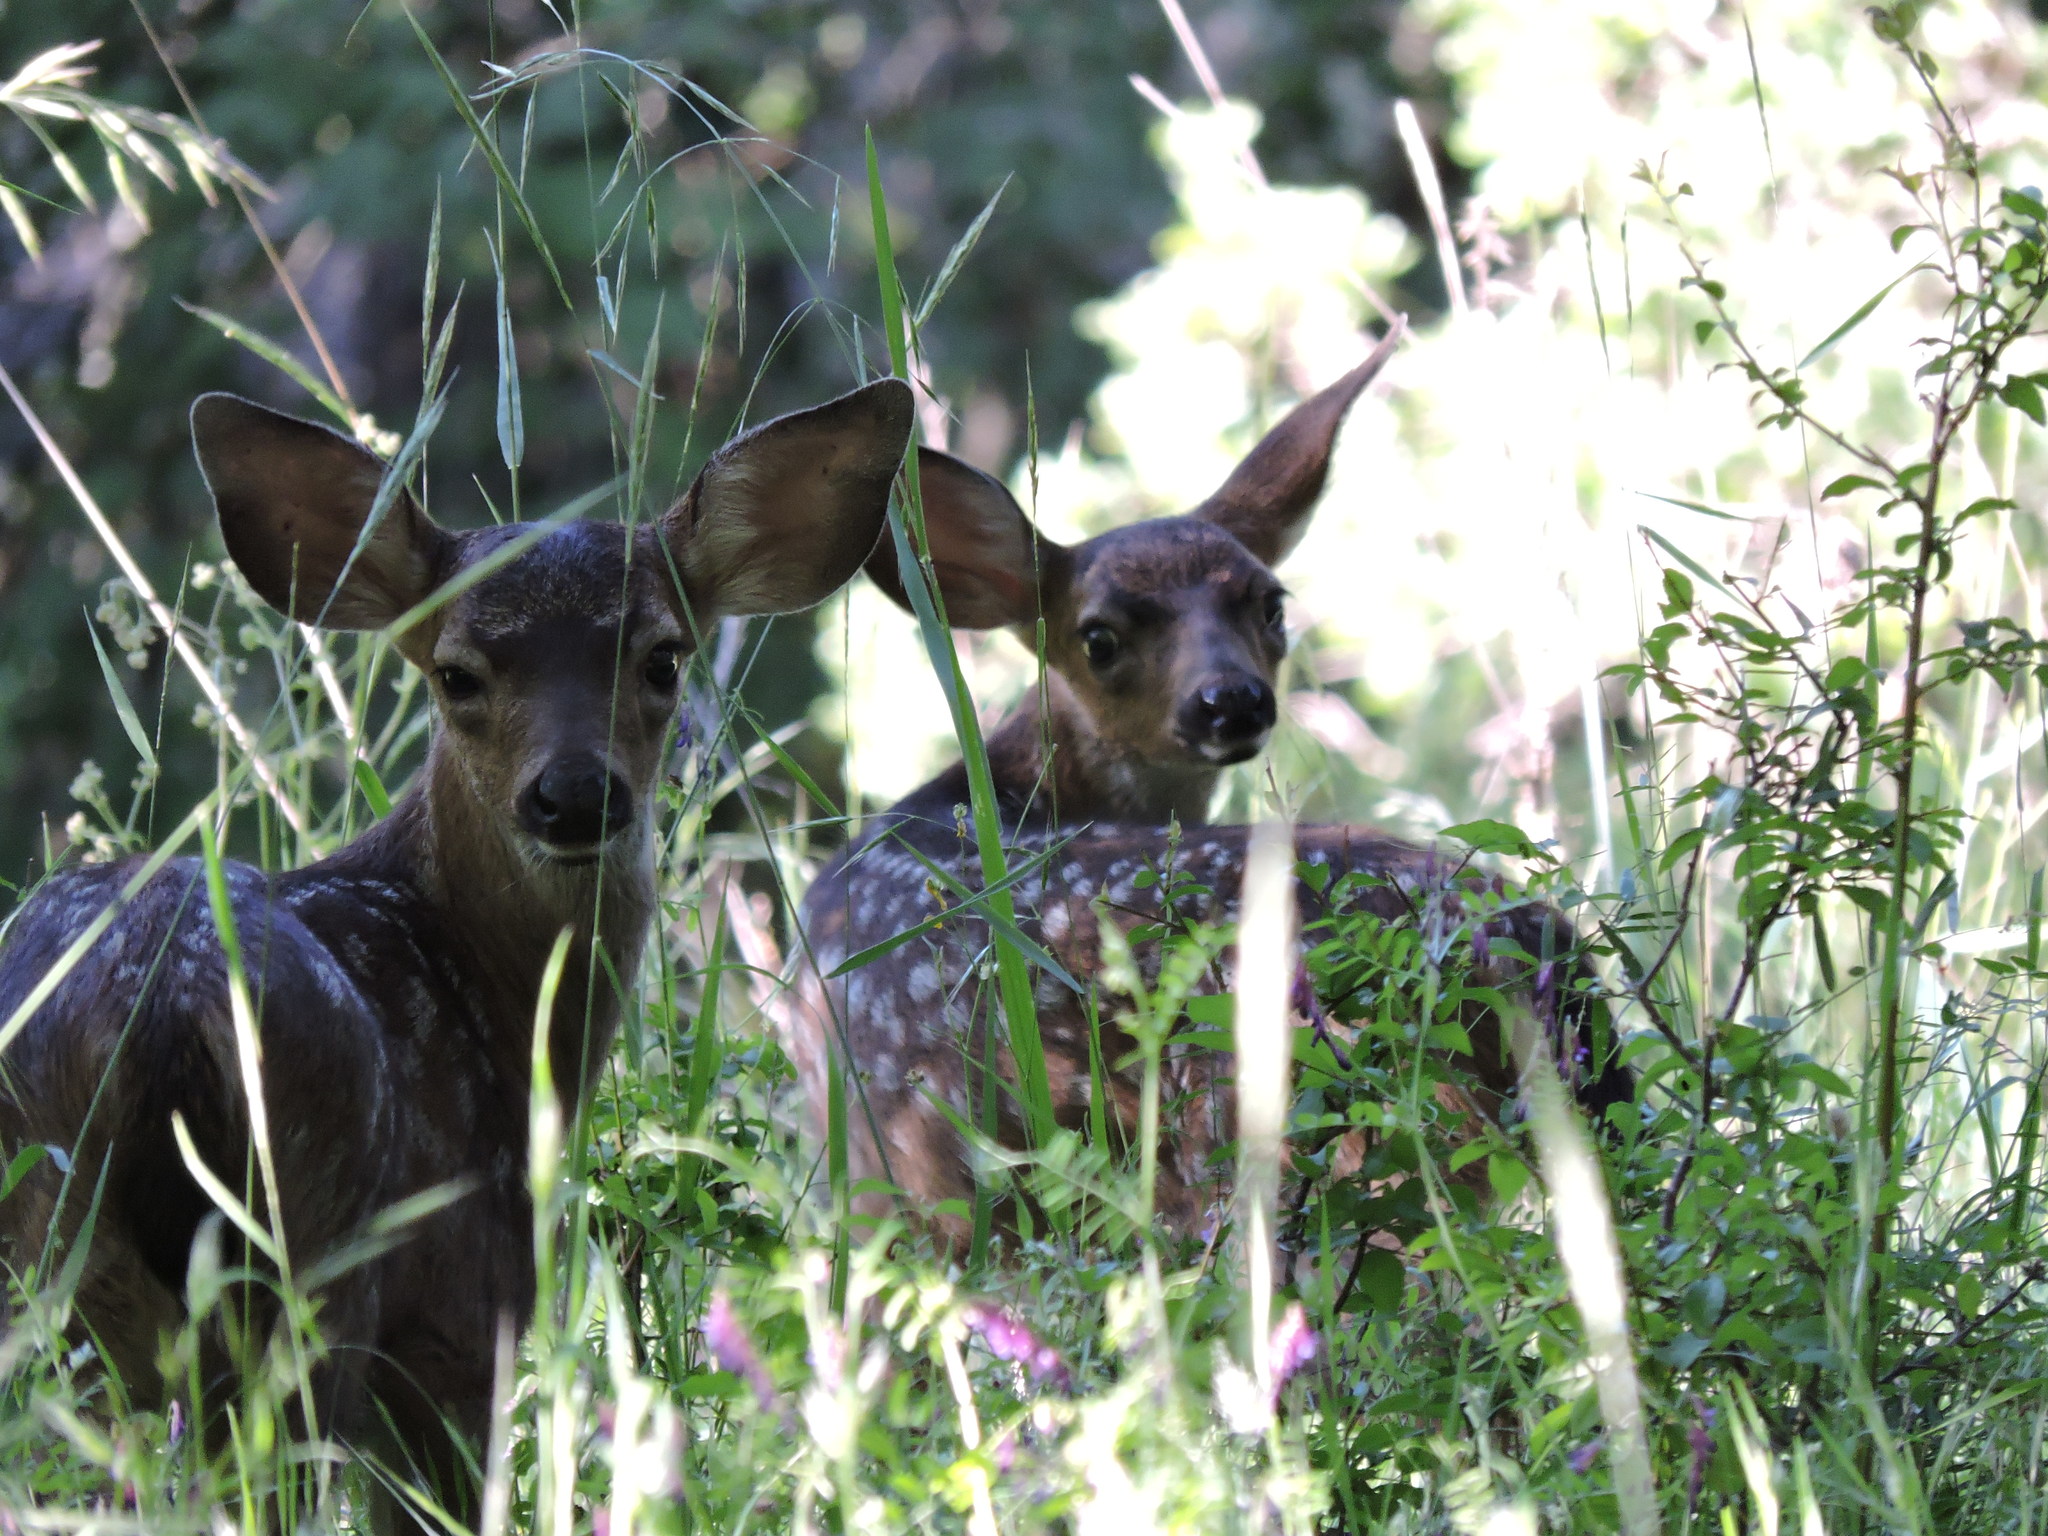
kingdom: Animalia
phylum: Chordata
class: Mammalia
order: Artiodactyla
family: Cervidae
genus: Odocoileus
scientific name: Odocoileus hemionus
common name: Mule deer
